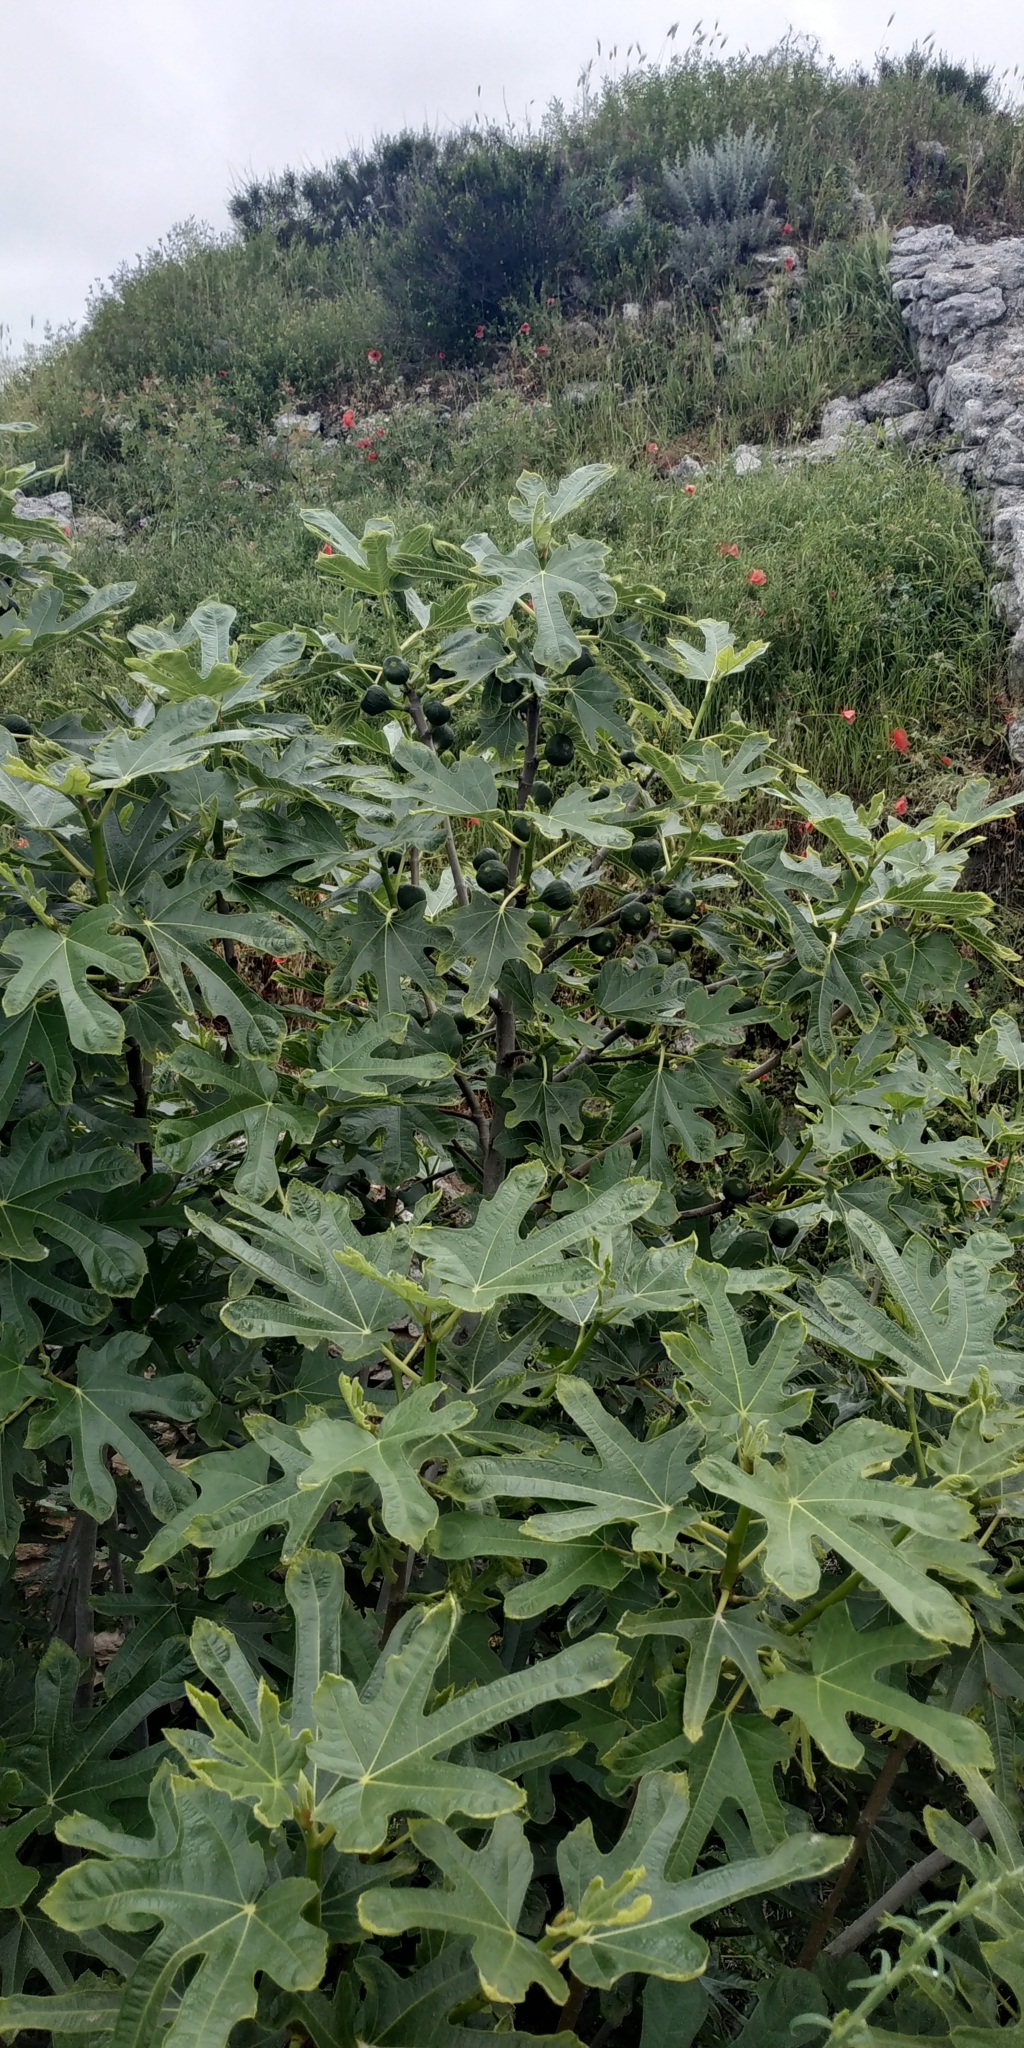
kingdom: Plantae
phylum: Tracheophyta
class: Magnoliopsida
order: Rosales
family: Moraceae
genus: Ficus
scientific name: Ficus carica
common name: Fig
